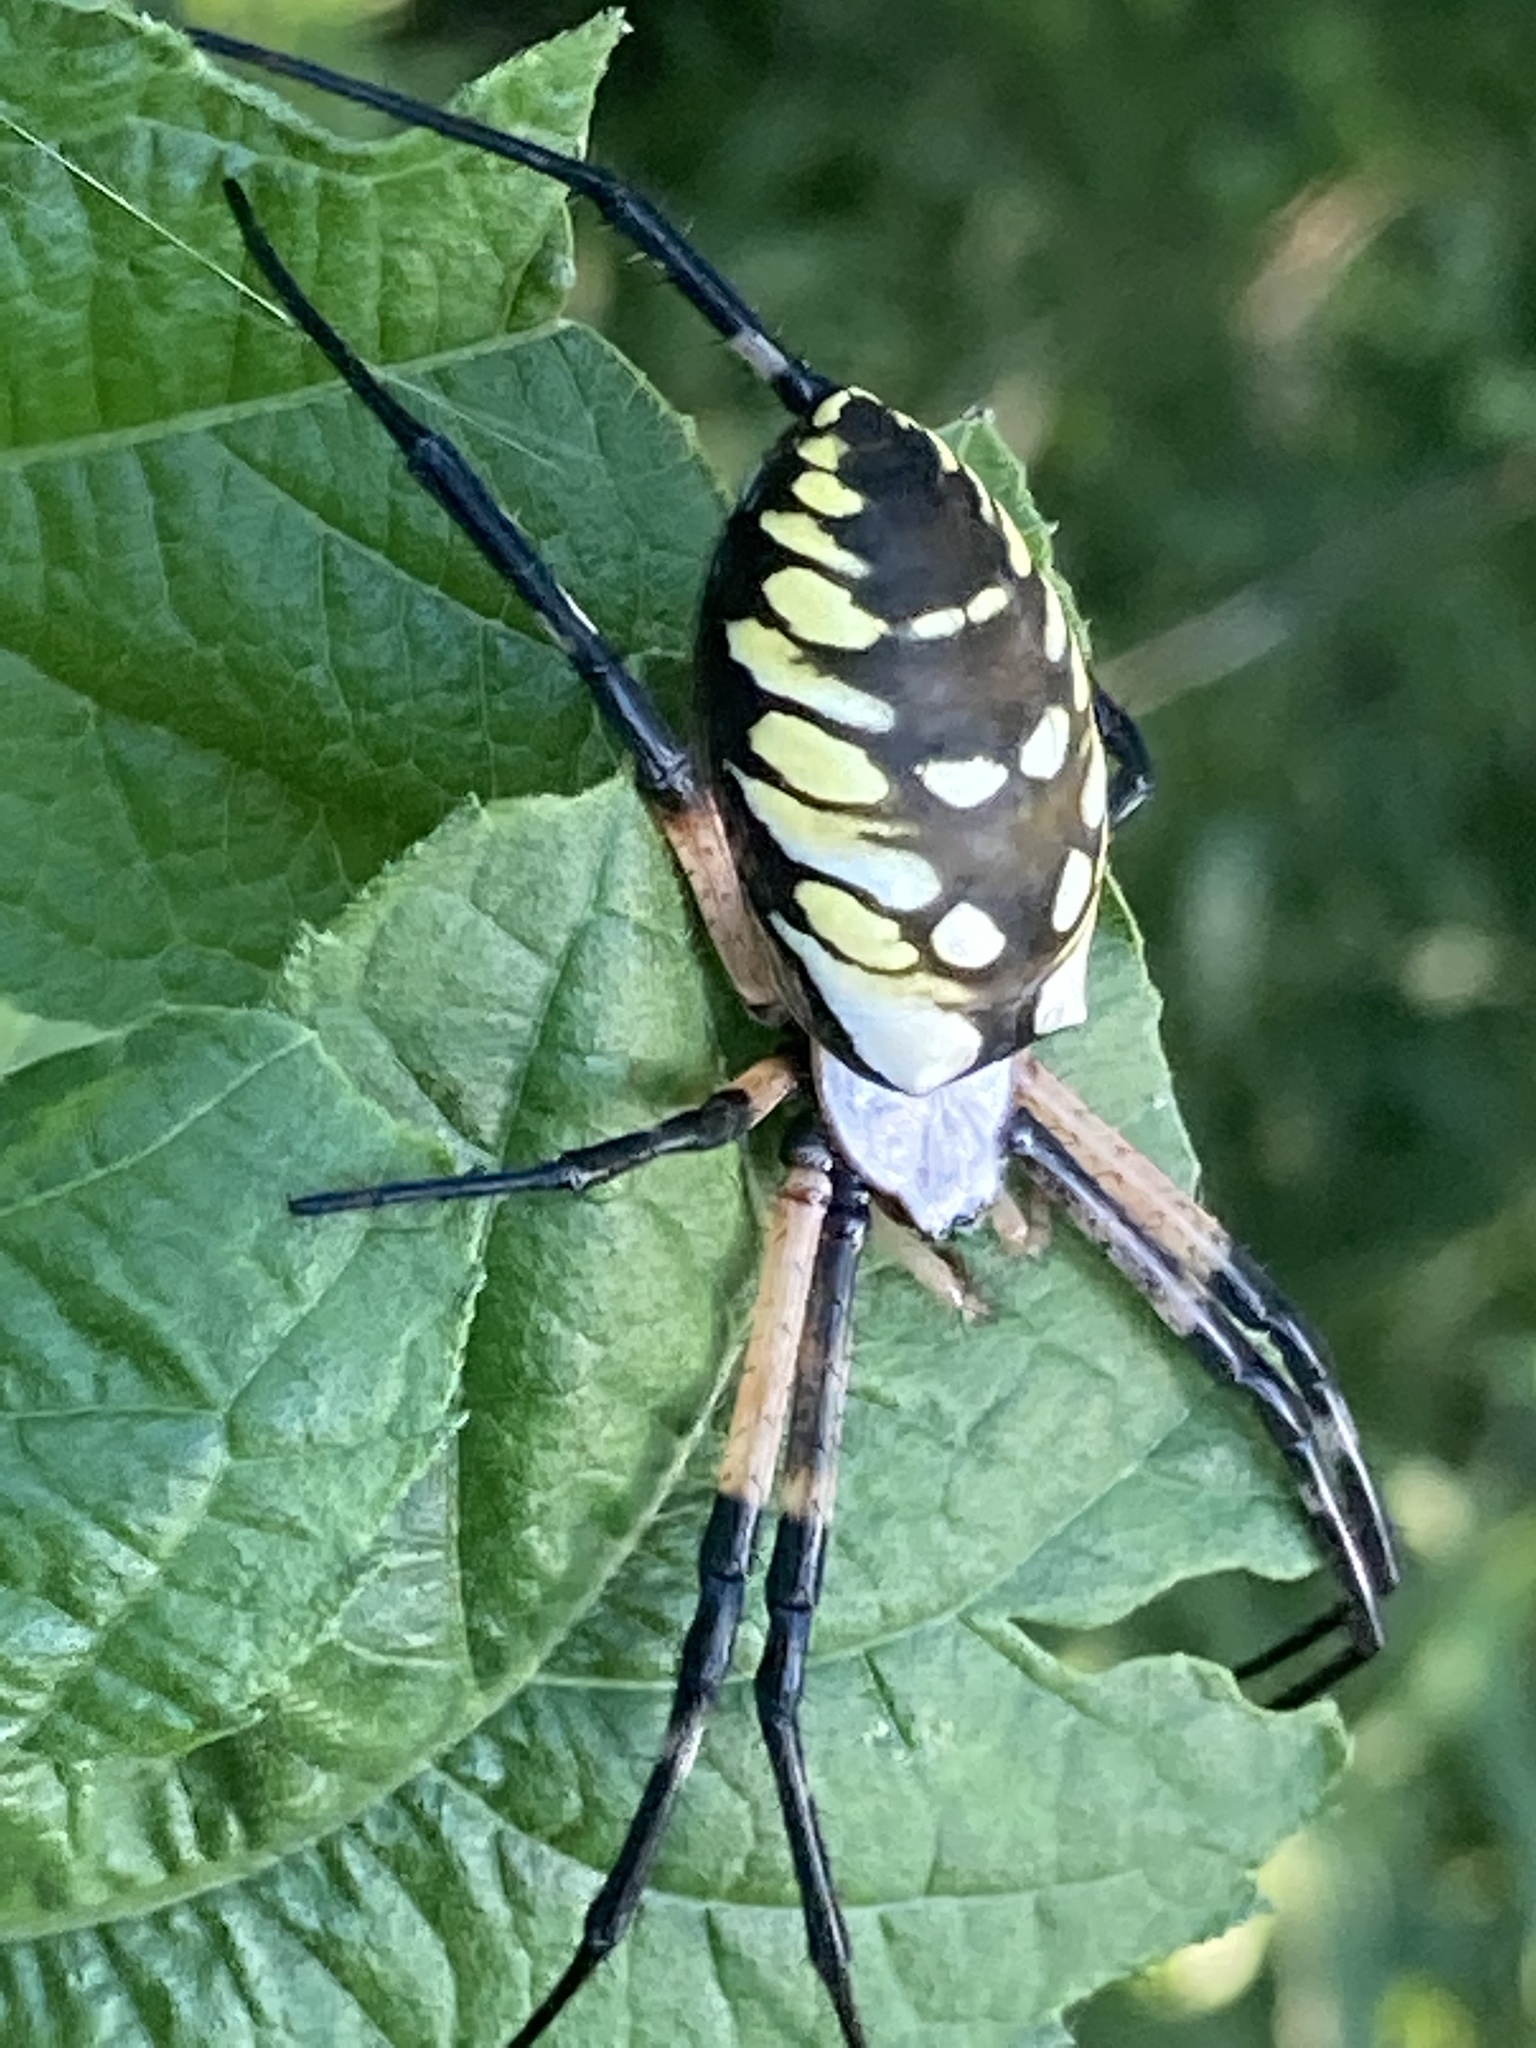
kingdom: Animalia
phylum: Arthropoda
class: Arachnida
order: Araneae
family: Araneidae
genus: Argiope
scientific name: Argiope aurantia
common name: Orb weavers
